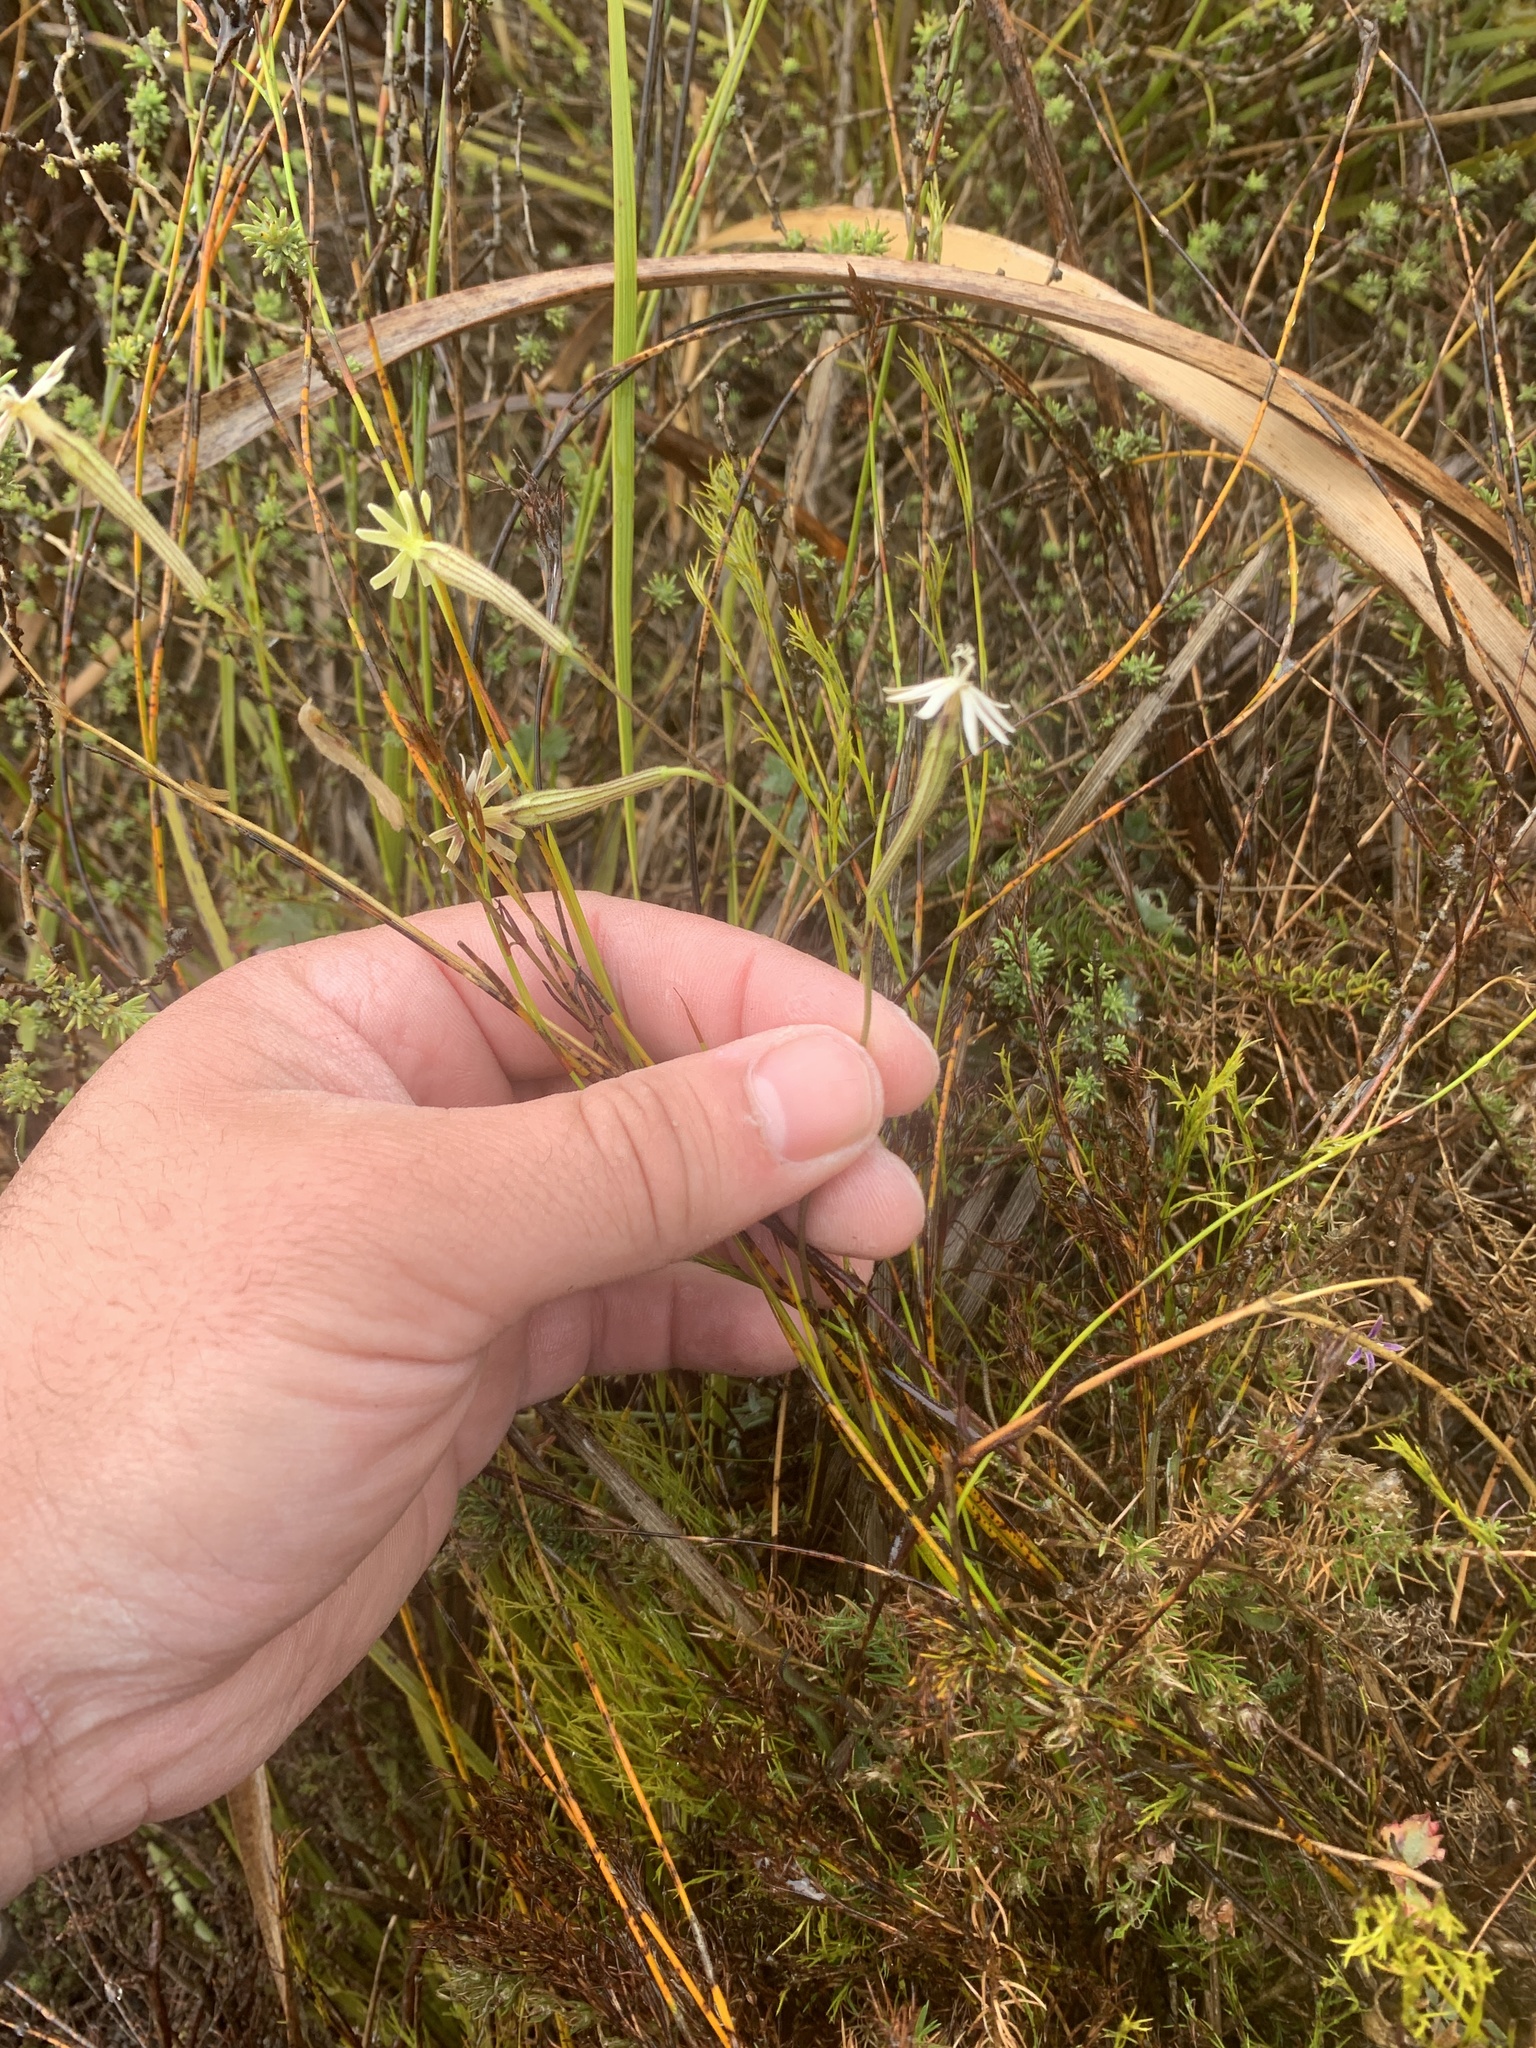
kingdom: Plantae
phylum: Tracheophyta
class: Magnoliopsida
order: Caryophyllales
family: Caryophyllaceae
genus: Silene
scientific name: Silene burchellii
